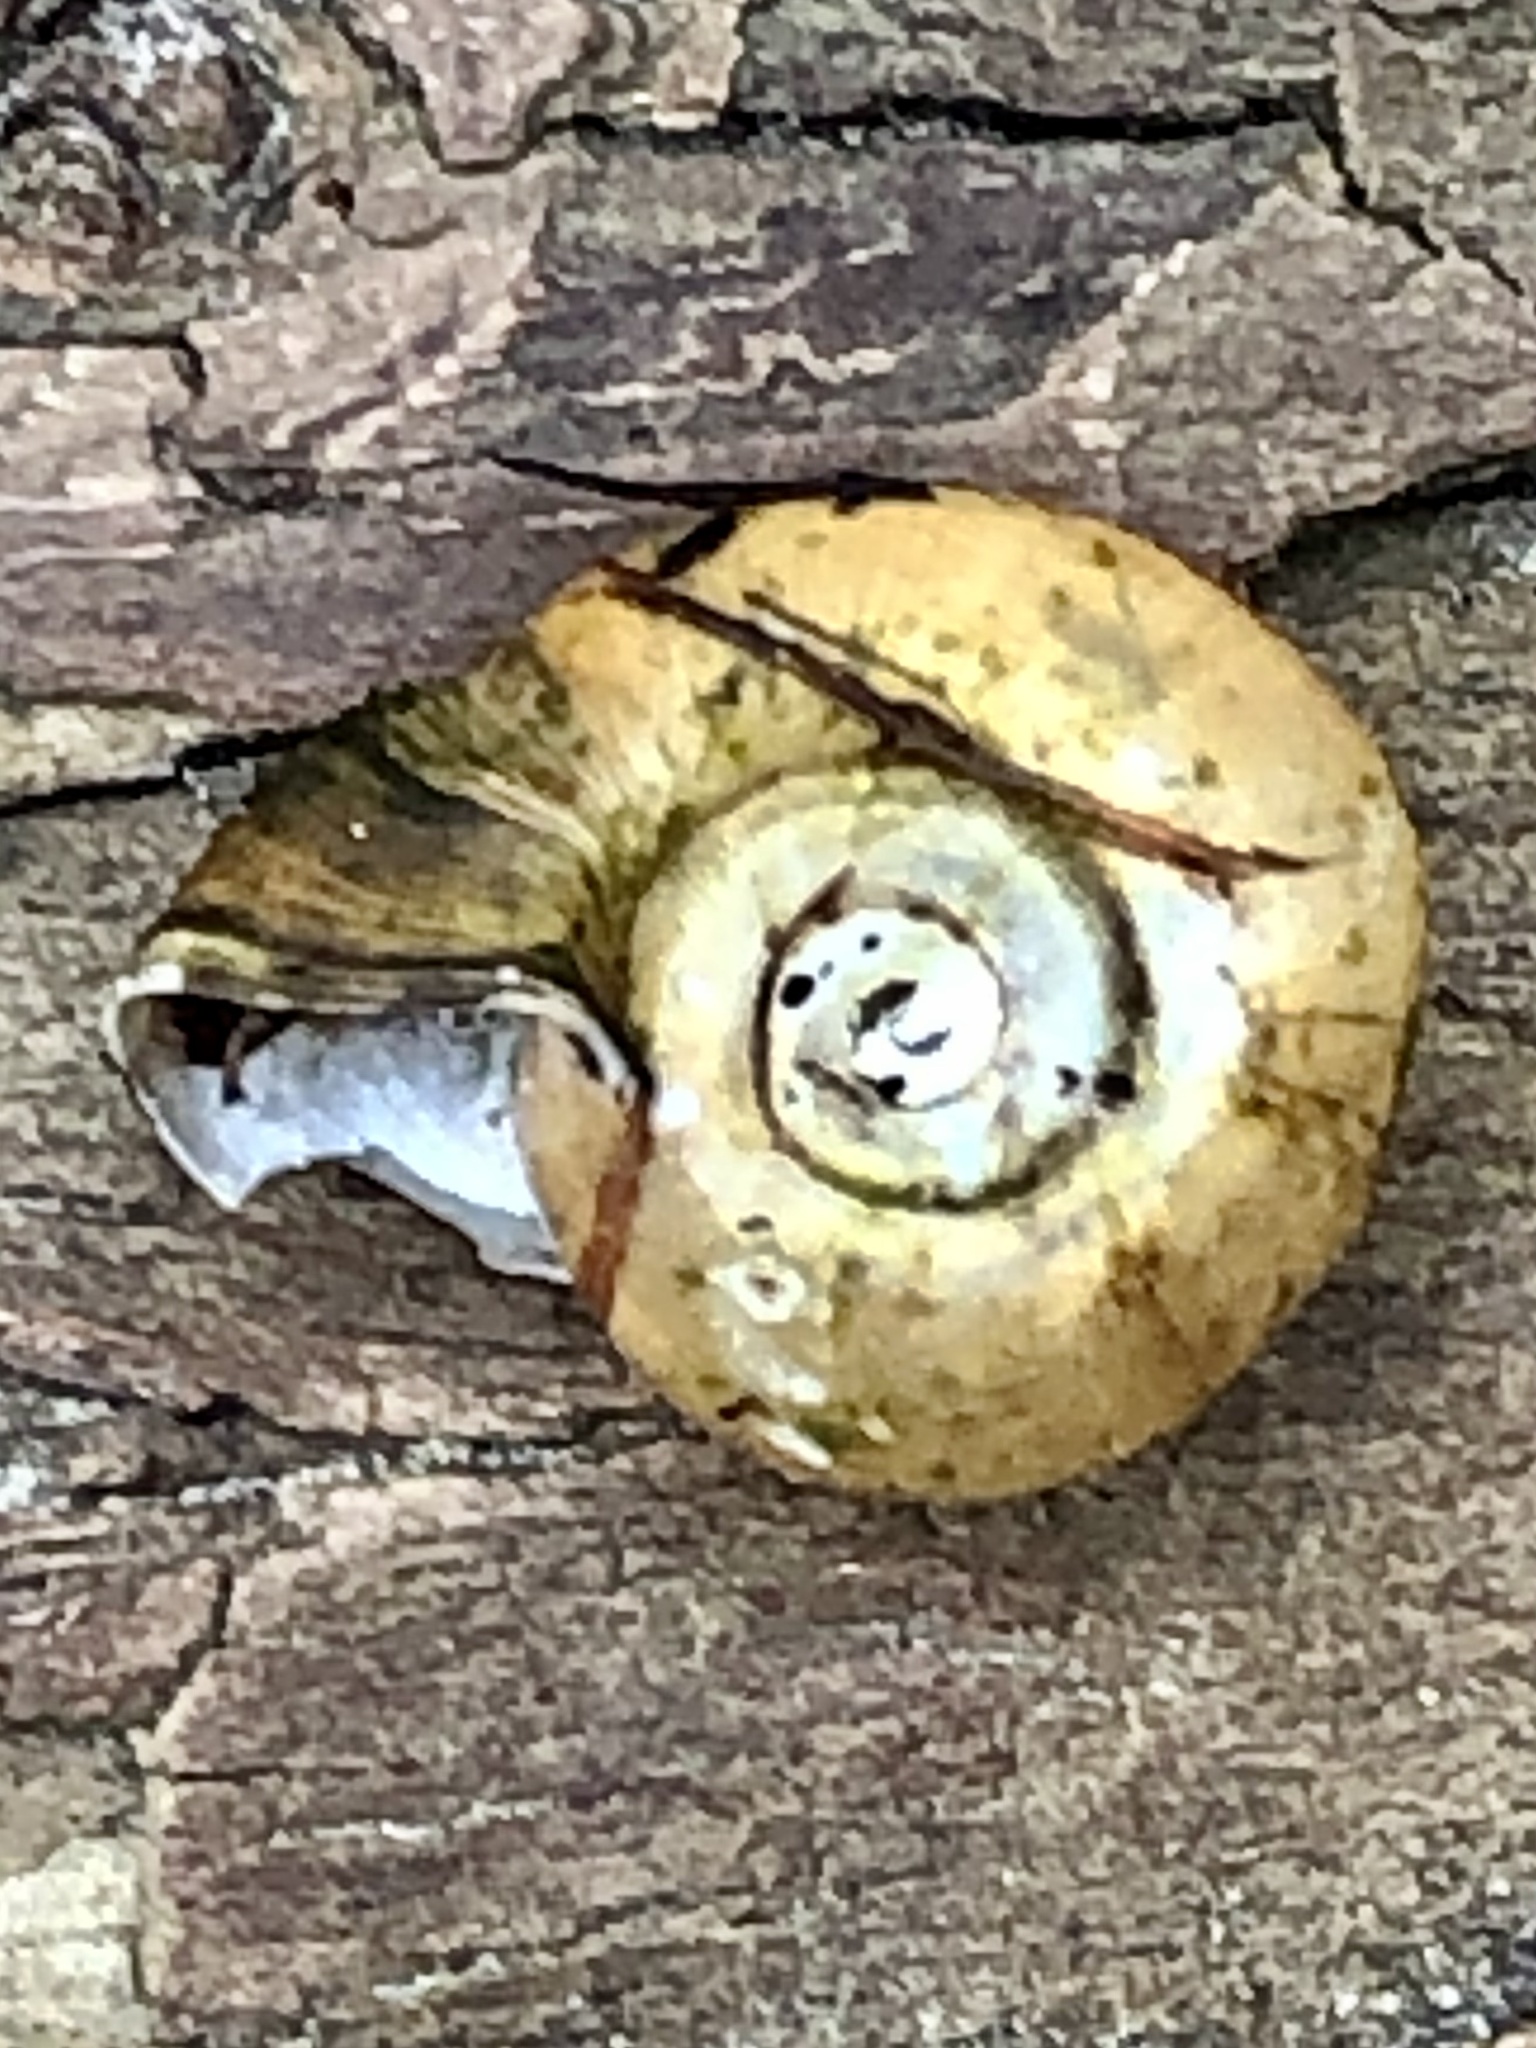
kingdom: Animalia
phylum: Mollusca
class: Gastropoda
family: Planorbidae
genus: Planorbella
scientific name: Planorbella campanulata
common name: Bellmouth ramshorn
